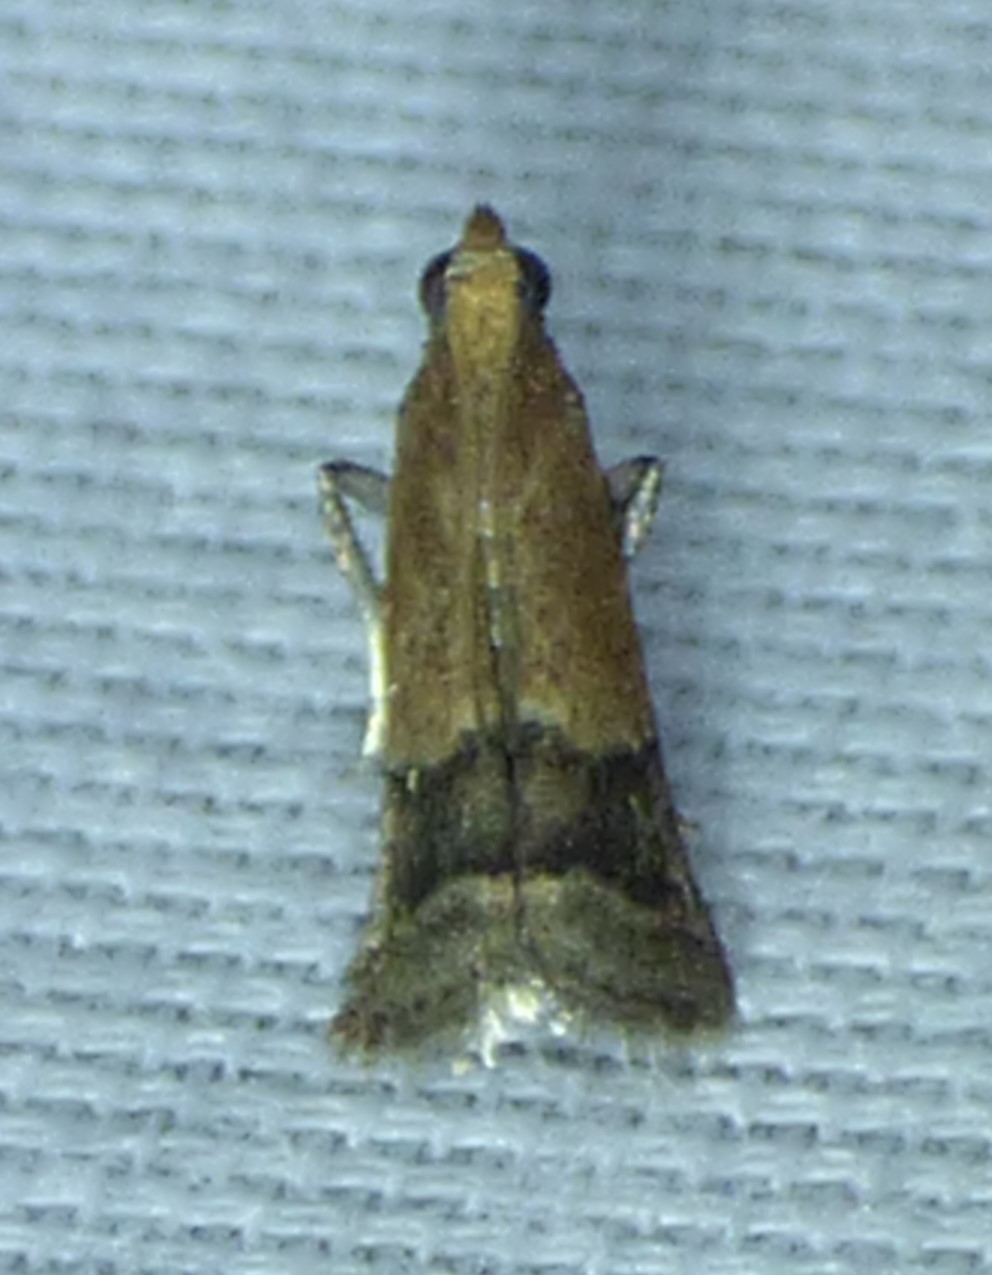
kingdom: Animalia
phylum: Arthropoda
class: Insecta
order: Lepidoptera
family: Pyralidae
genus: Eulogia
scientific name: Eulogia ochrifrontella
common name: Broad-banded eulogia moth
